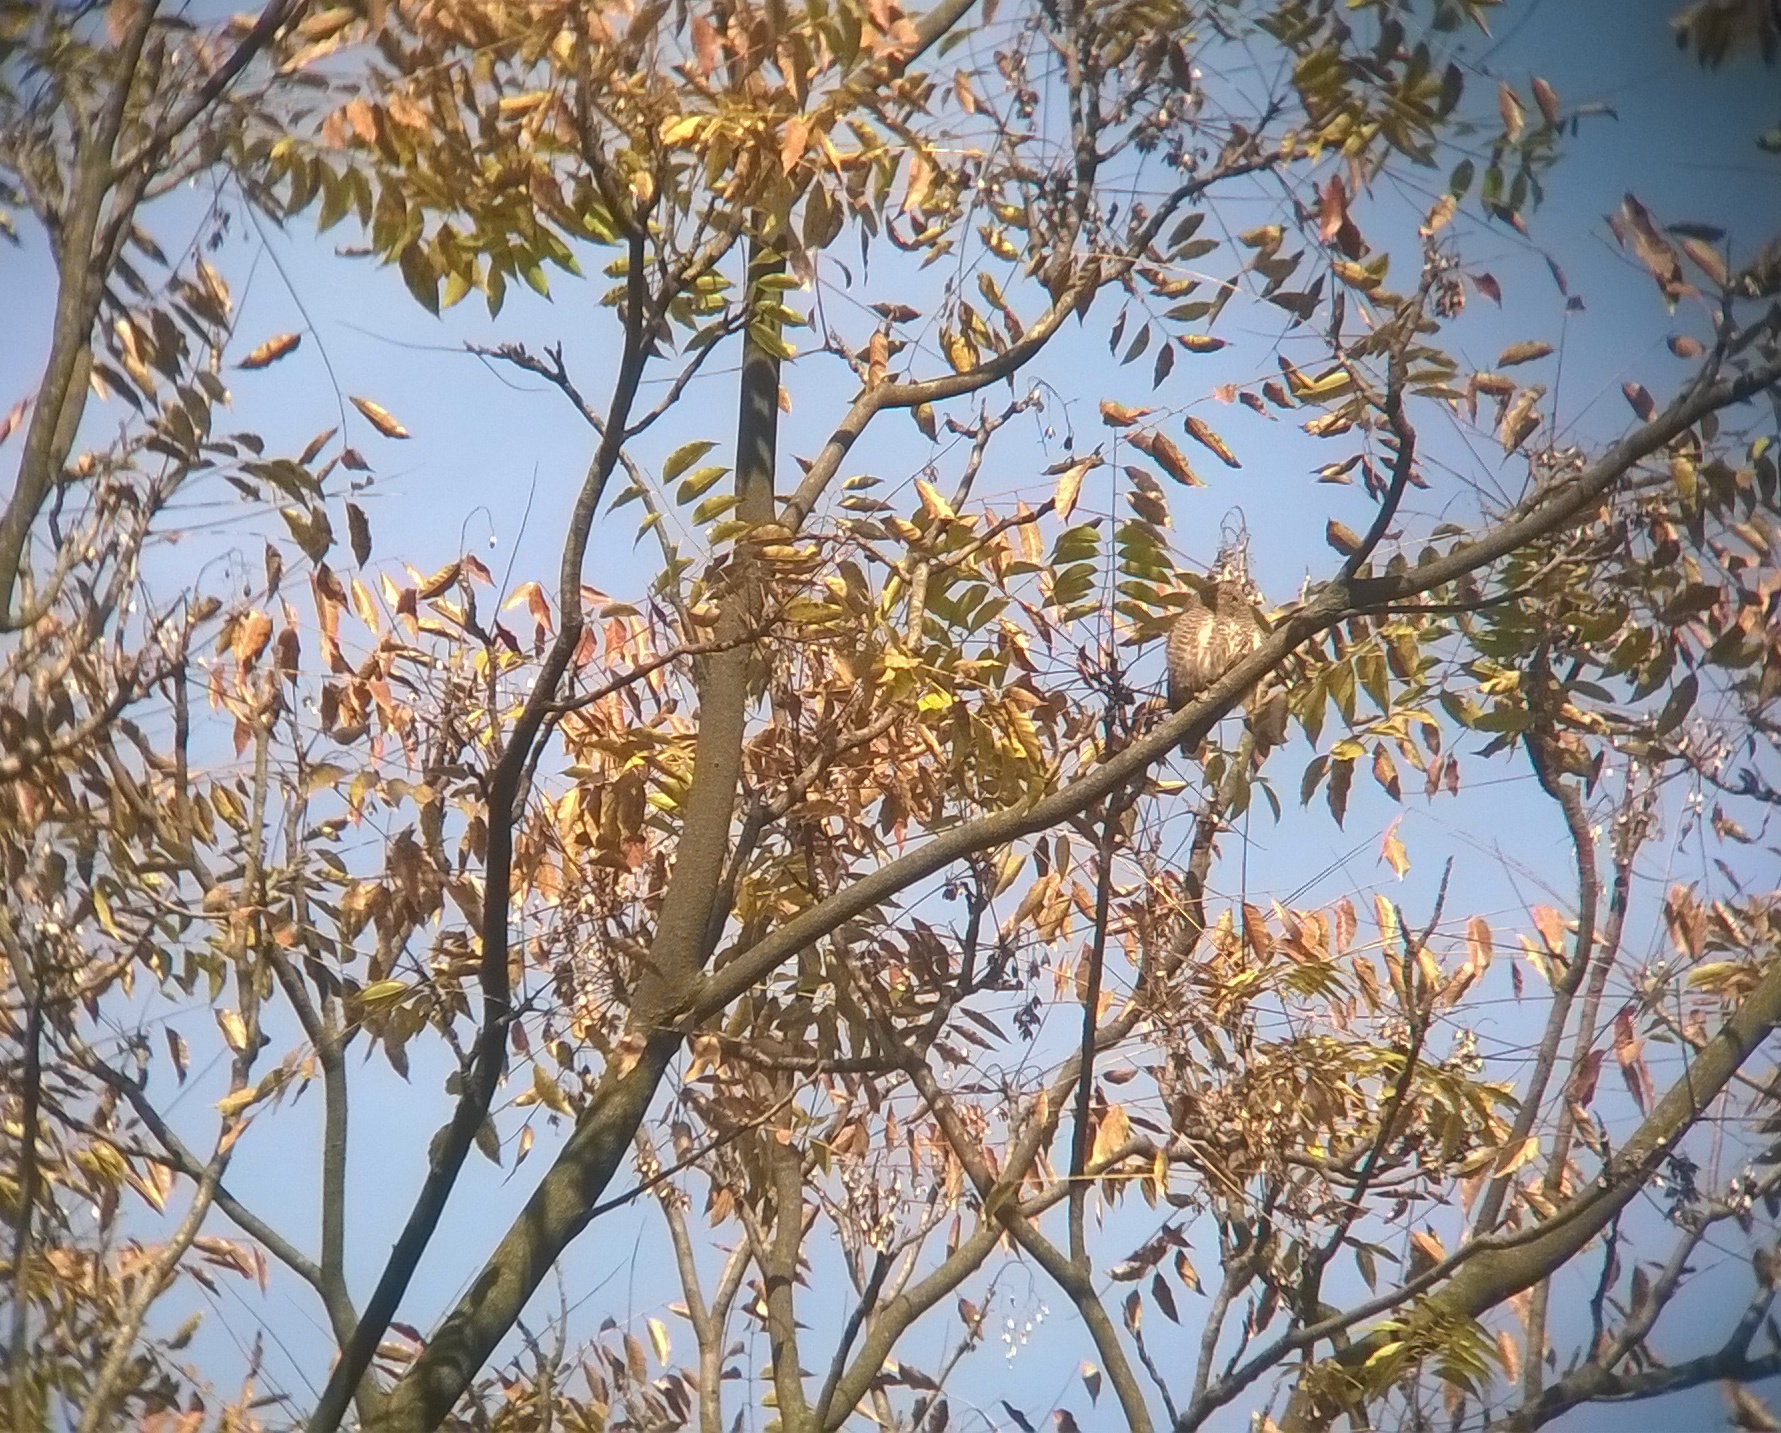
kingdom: Animalia
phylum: Chordata
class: Aves
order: Strigiformes
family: Strigidae
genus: Glaucidium
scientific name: Glaucidium cuculoides
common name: Asian barred owlet
